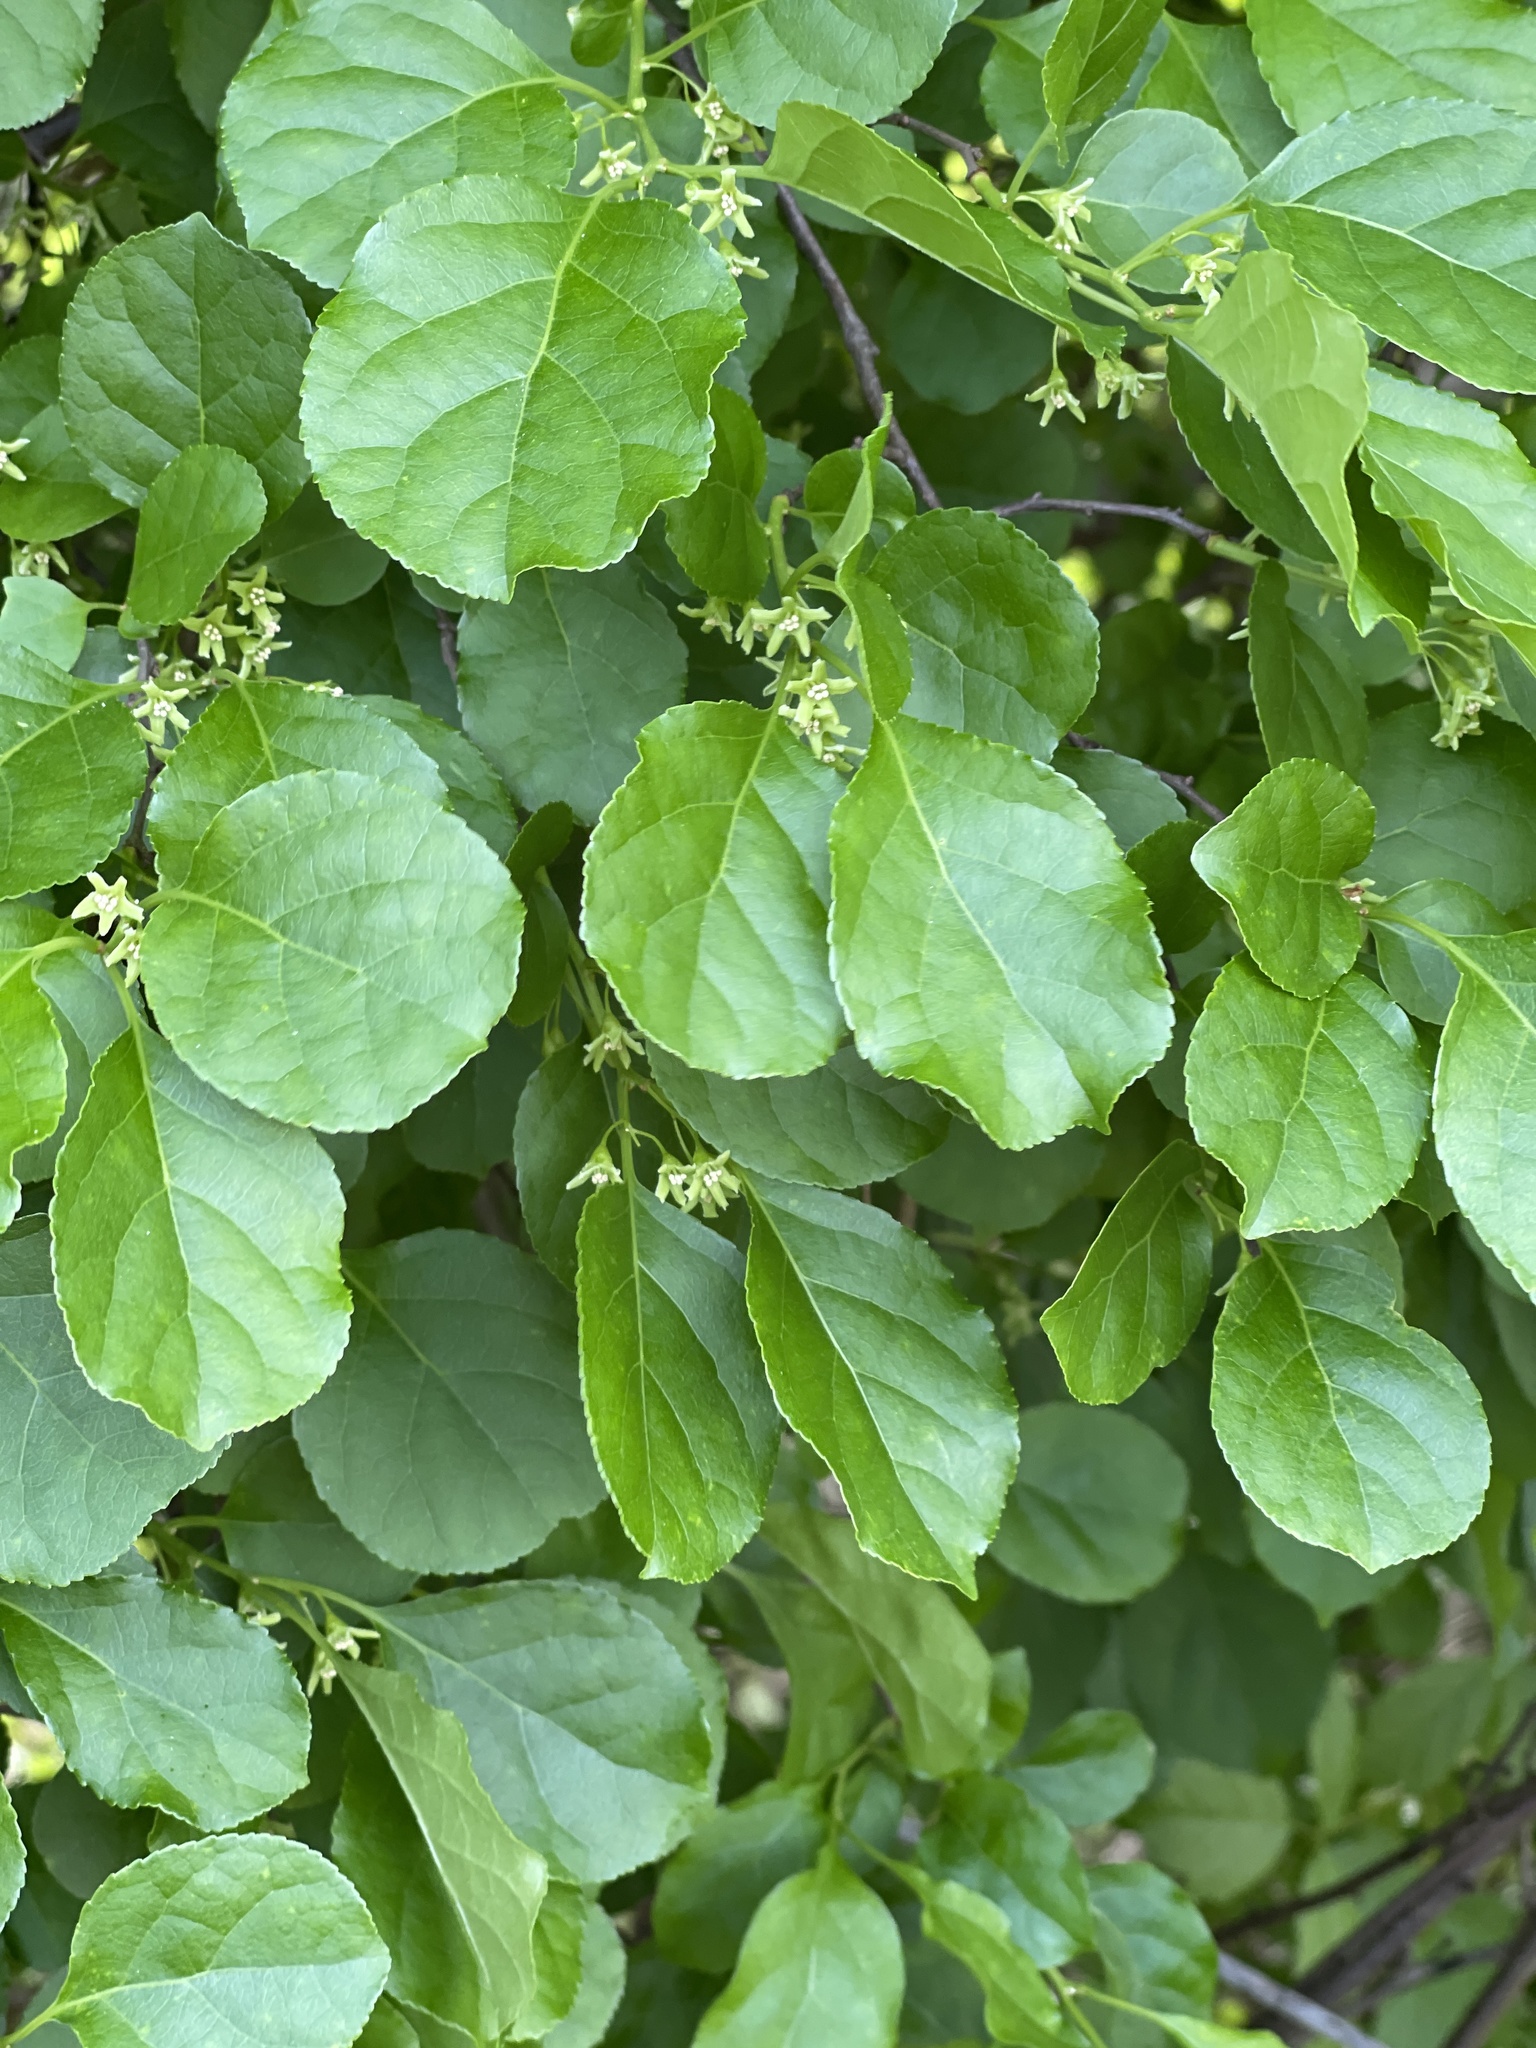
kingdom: Plantae
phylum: Tracheophyta
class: Magnoliopsida
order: Celastrales
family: Celastraceae
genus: Celastrus
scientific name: Celastrus orbiculatus
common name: Oriental bittersweet
